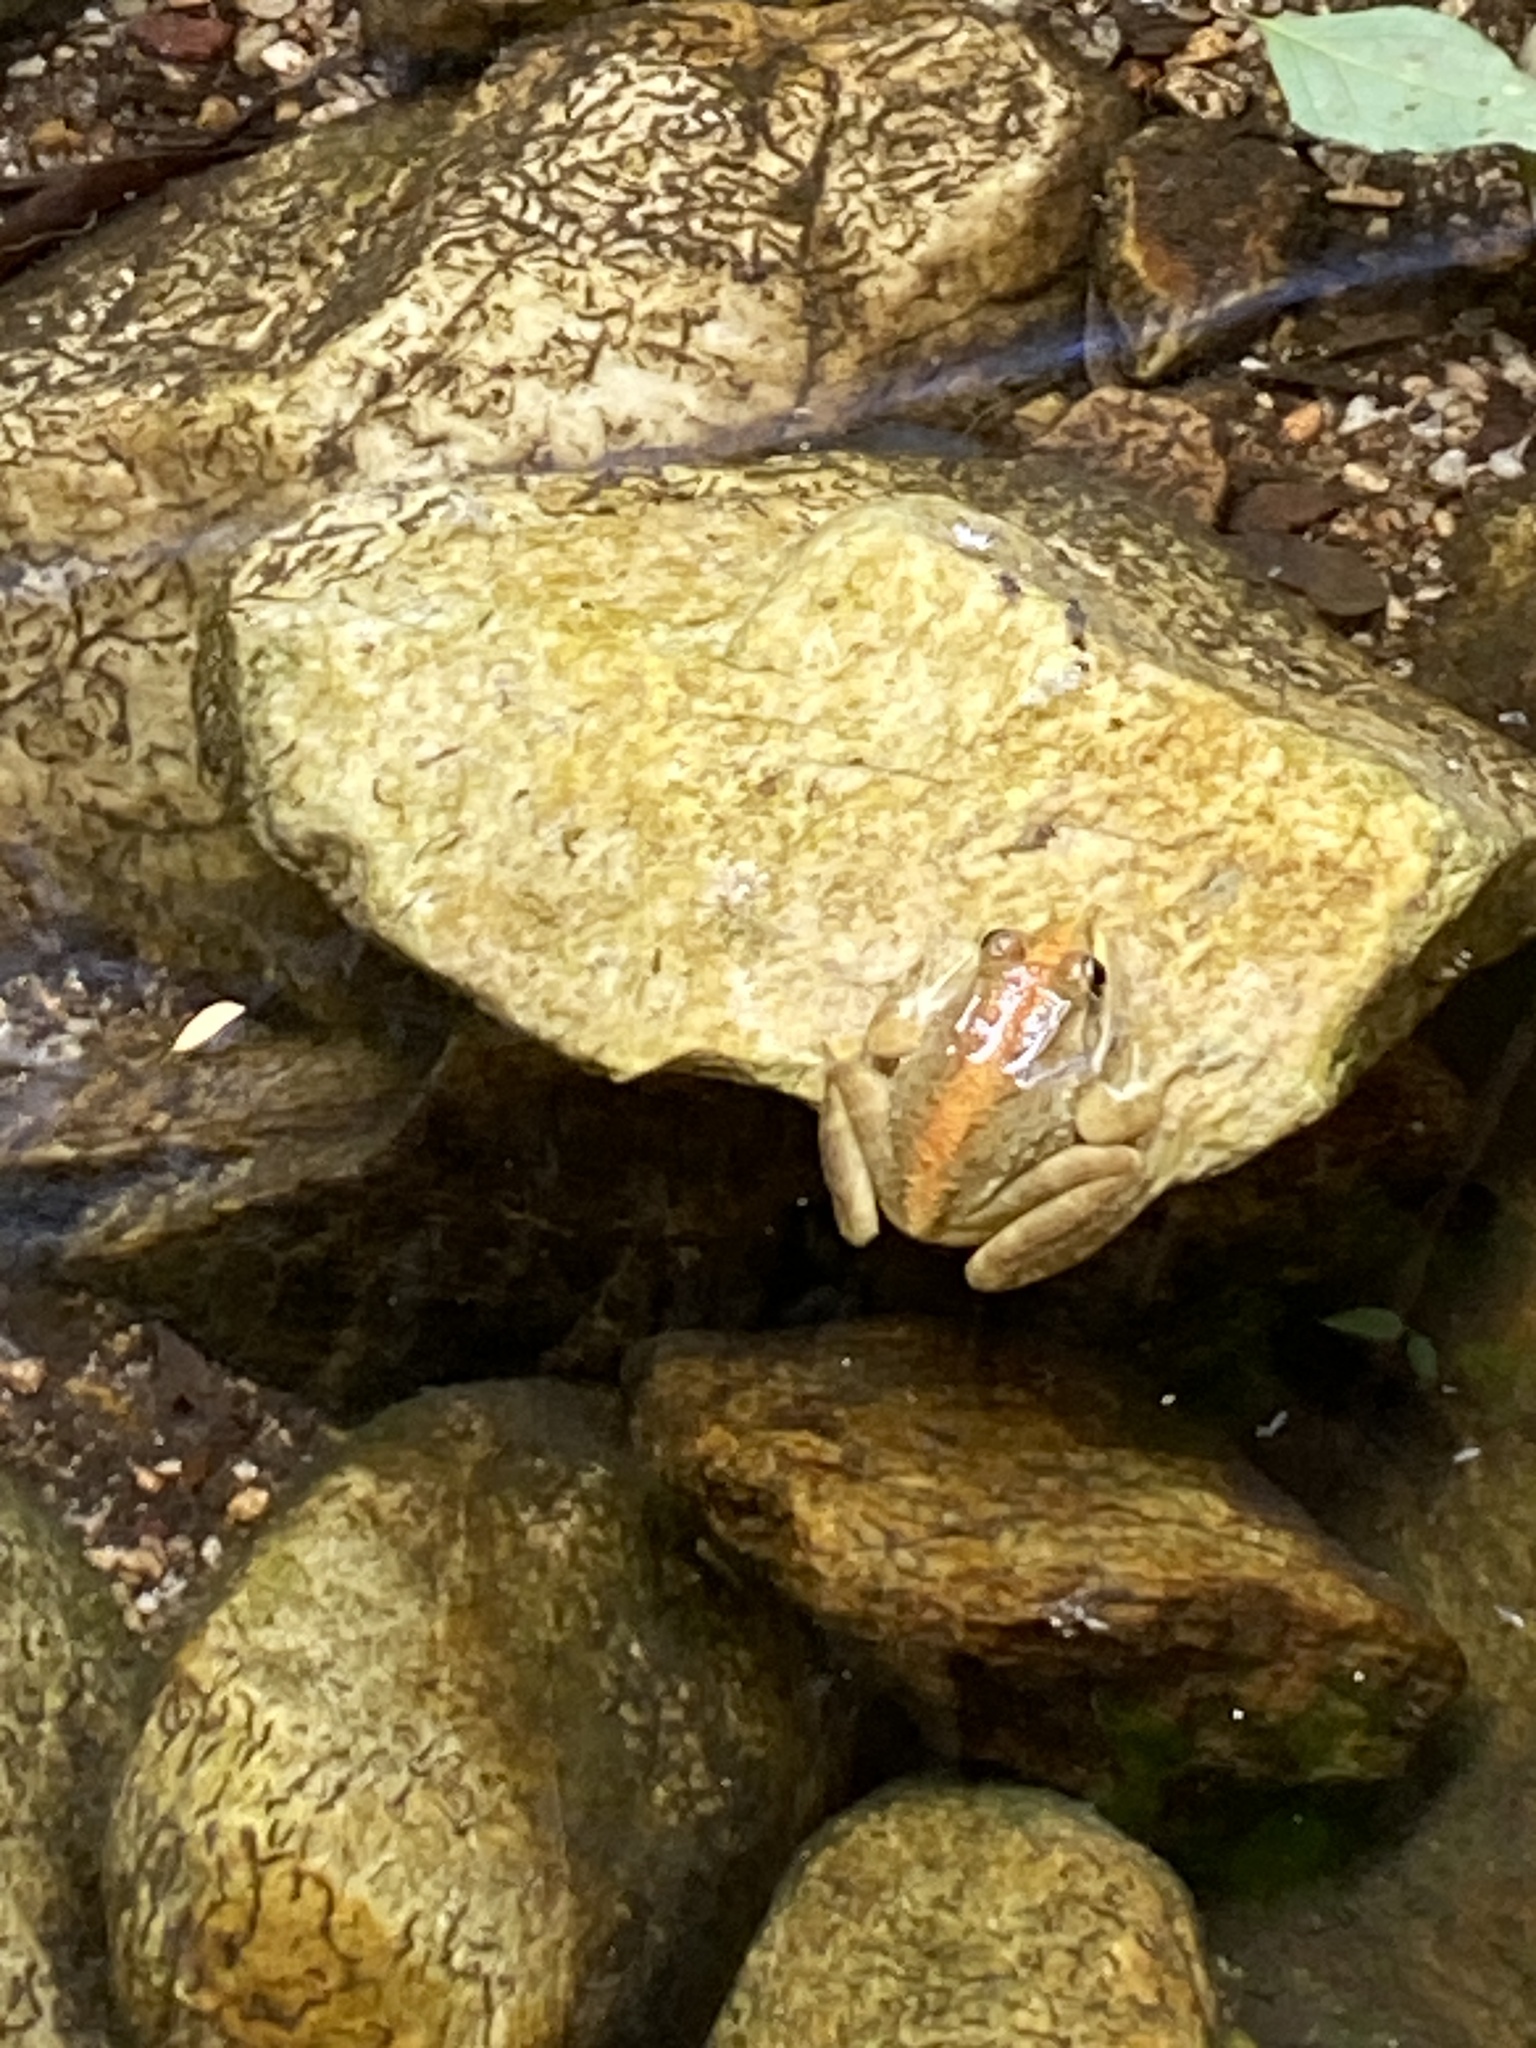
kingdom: Animalia
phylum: Chordata
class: Amphibia
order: Anura
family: Pyxicephalidae
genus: Amietia
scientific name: Amietia fuscigula
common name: Cape rana
